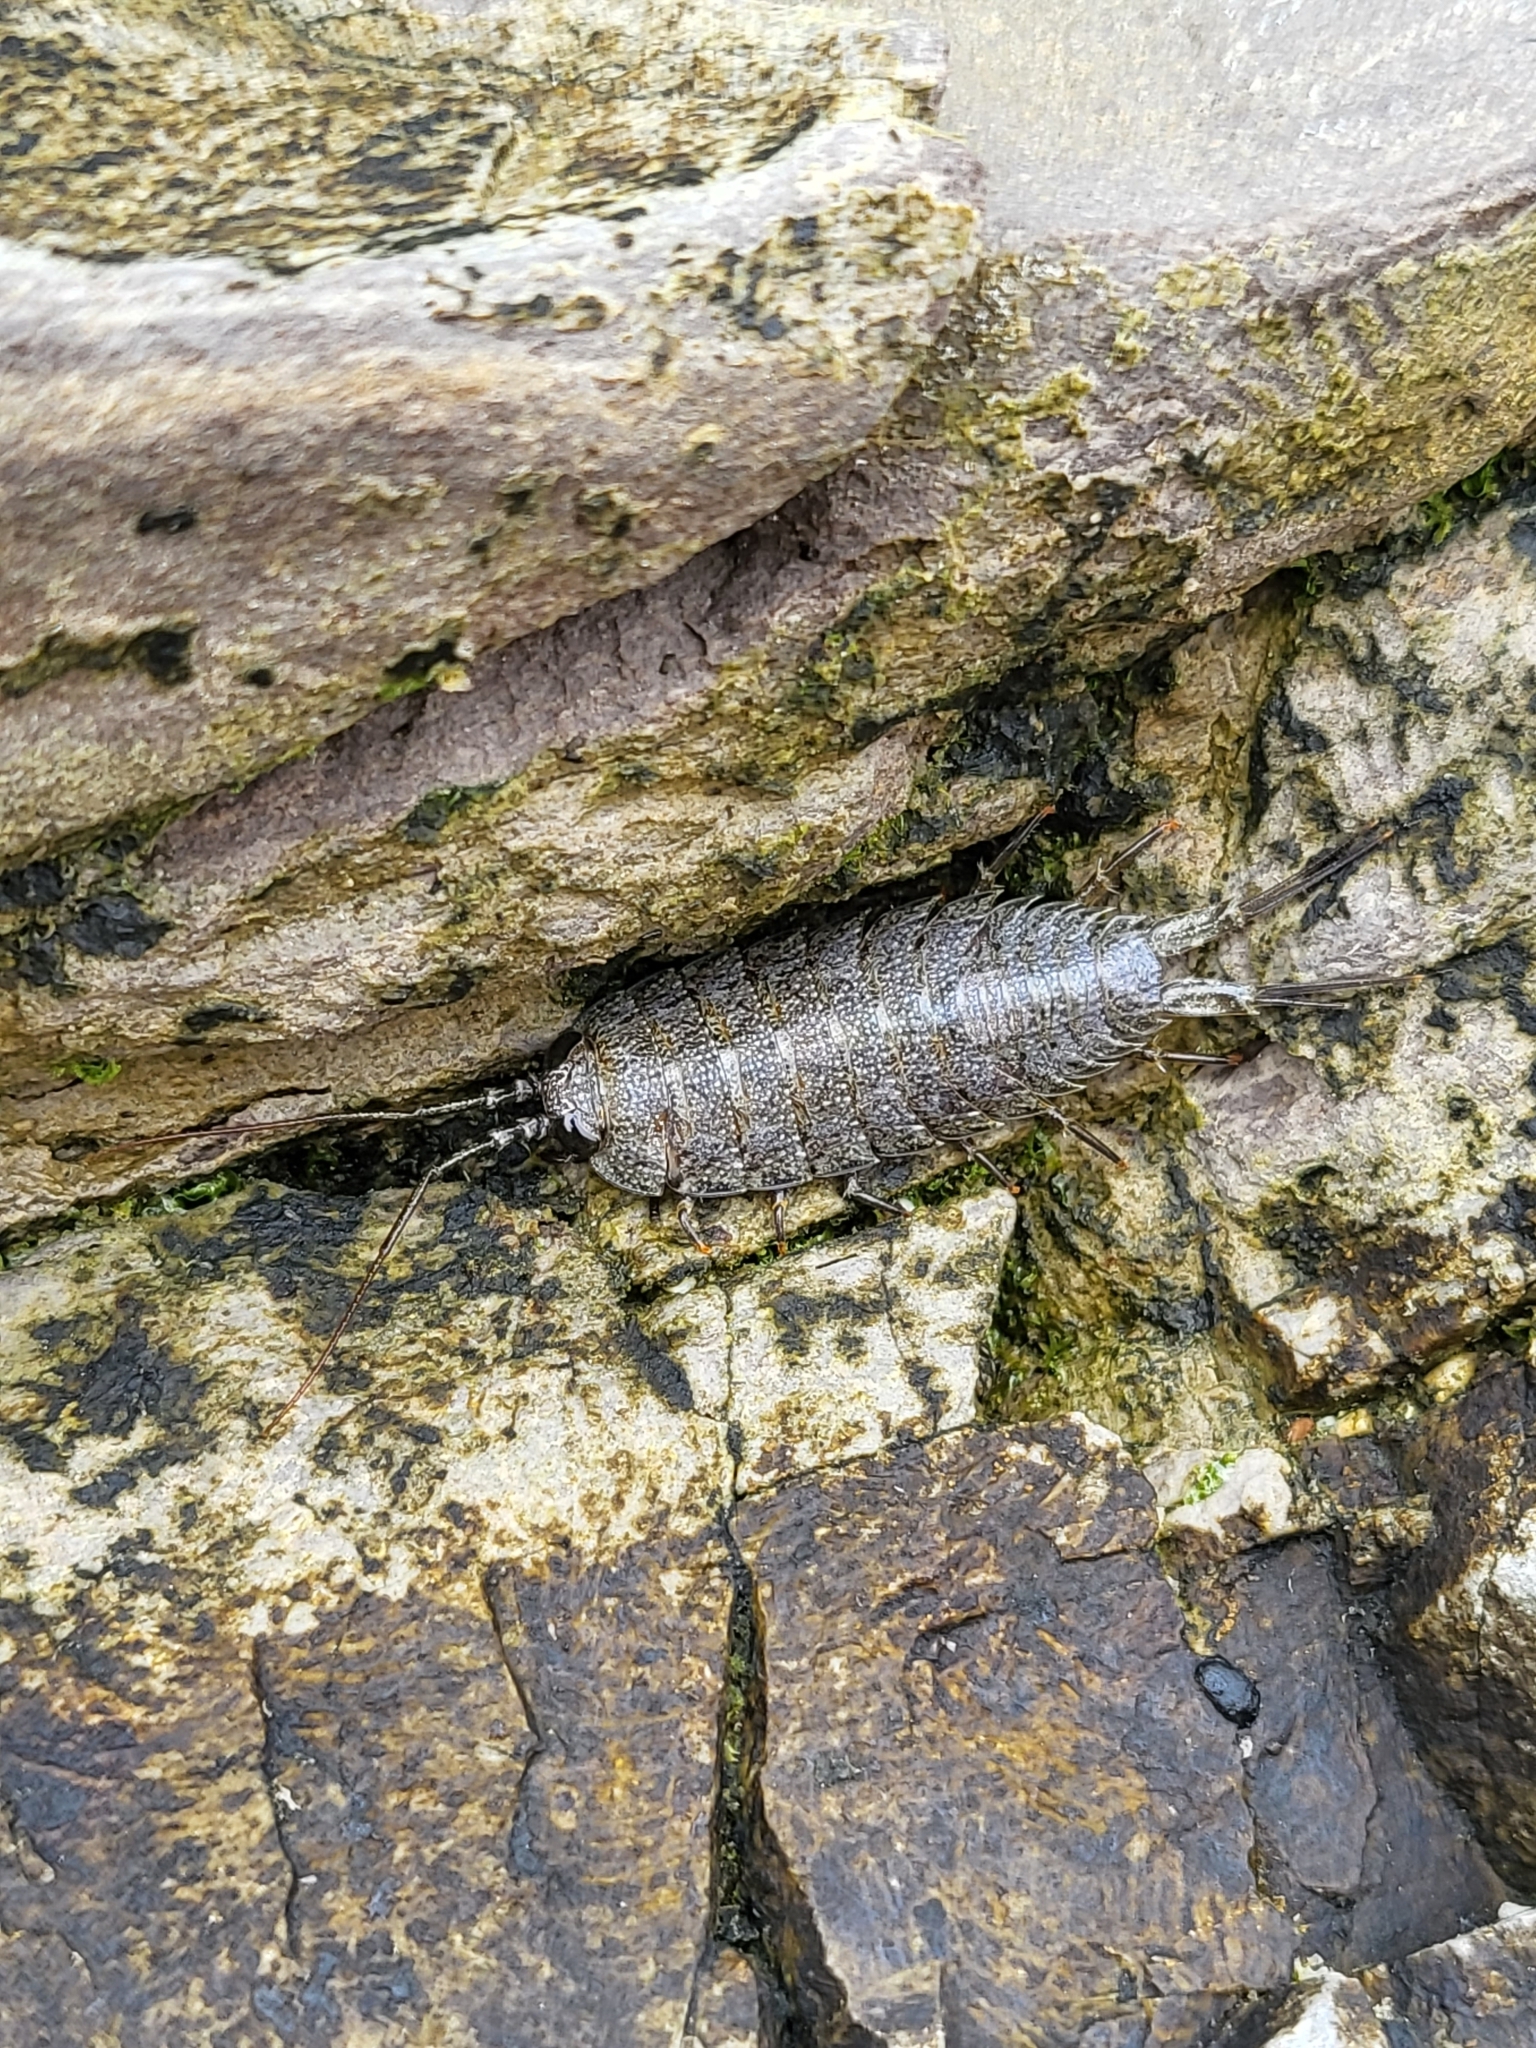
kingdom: Animalia
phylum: Arthropoda
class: Malacostraca
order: Isopoda
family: Ligiidae
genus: Ligia
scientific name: Ligia occidentalis
